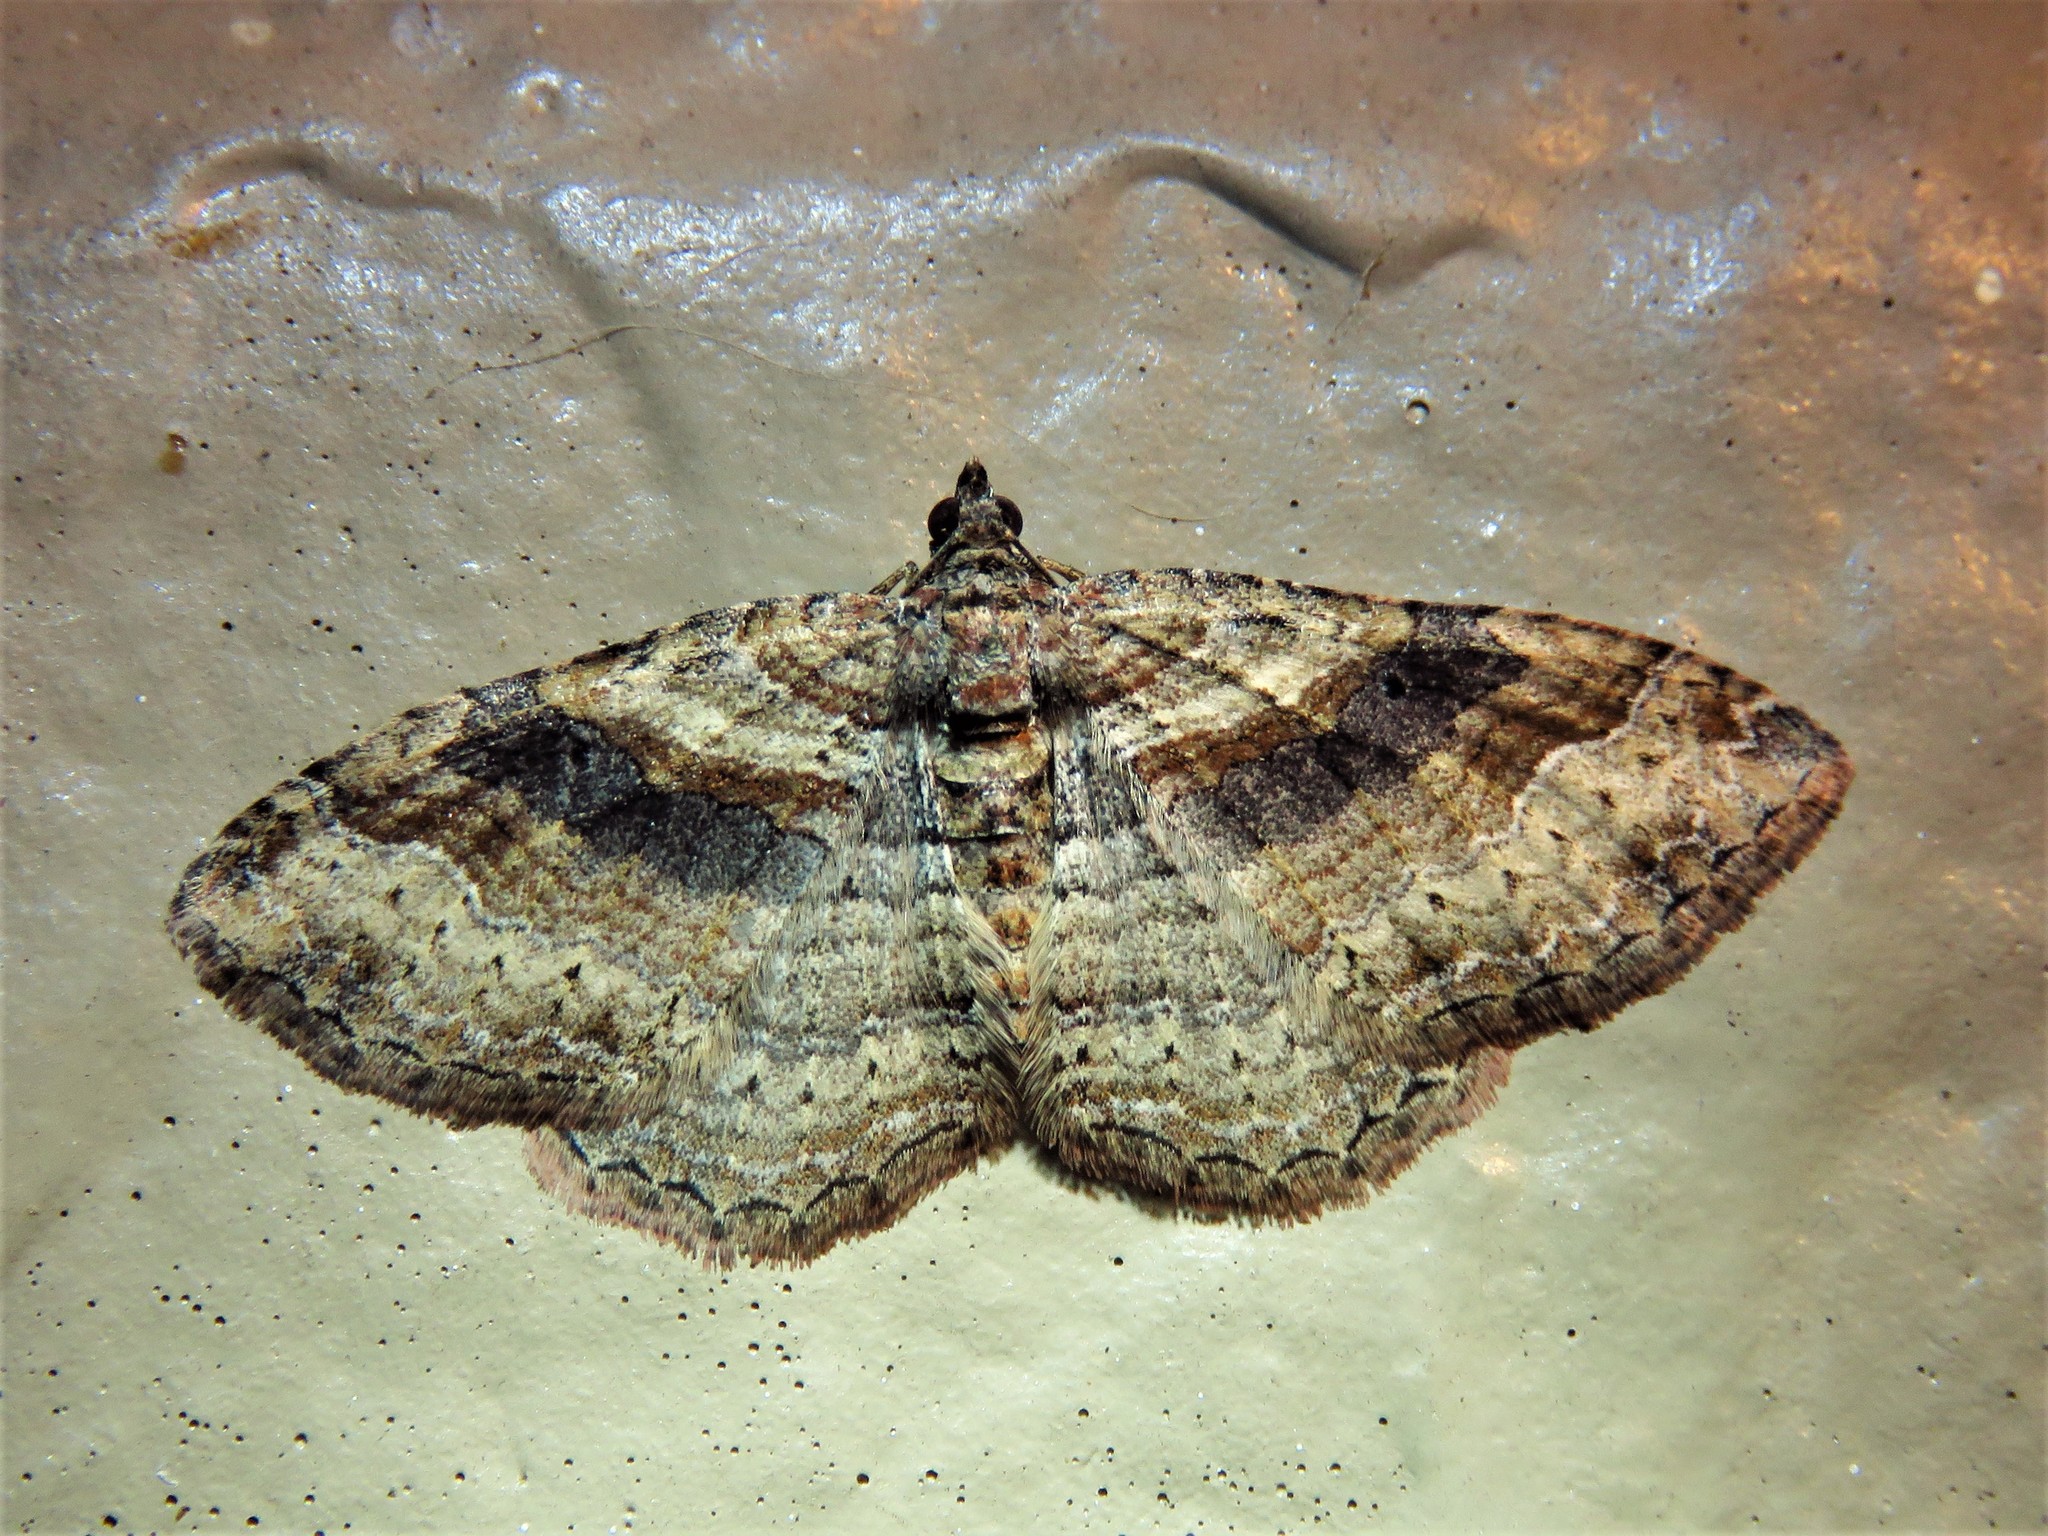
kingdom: Animalia
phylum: Arthropoda
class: Insecta
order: Lepidoptera
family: Geometridae
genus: Costaconvexa
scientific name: Costaconvexa centrostrigaria
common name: Bent-line carpet
